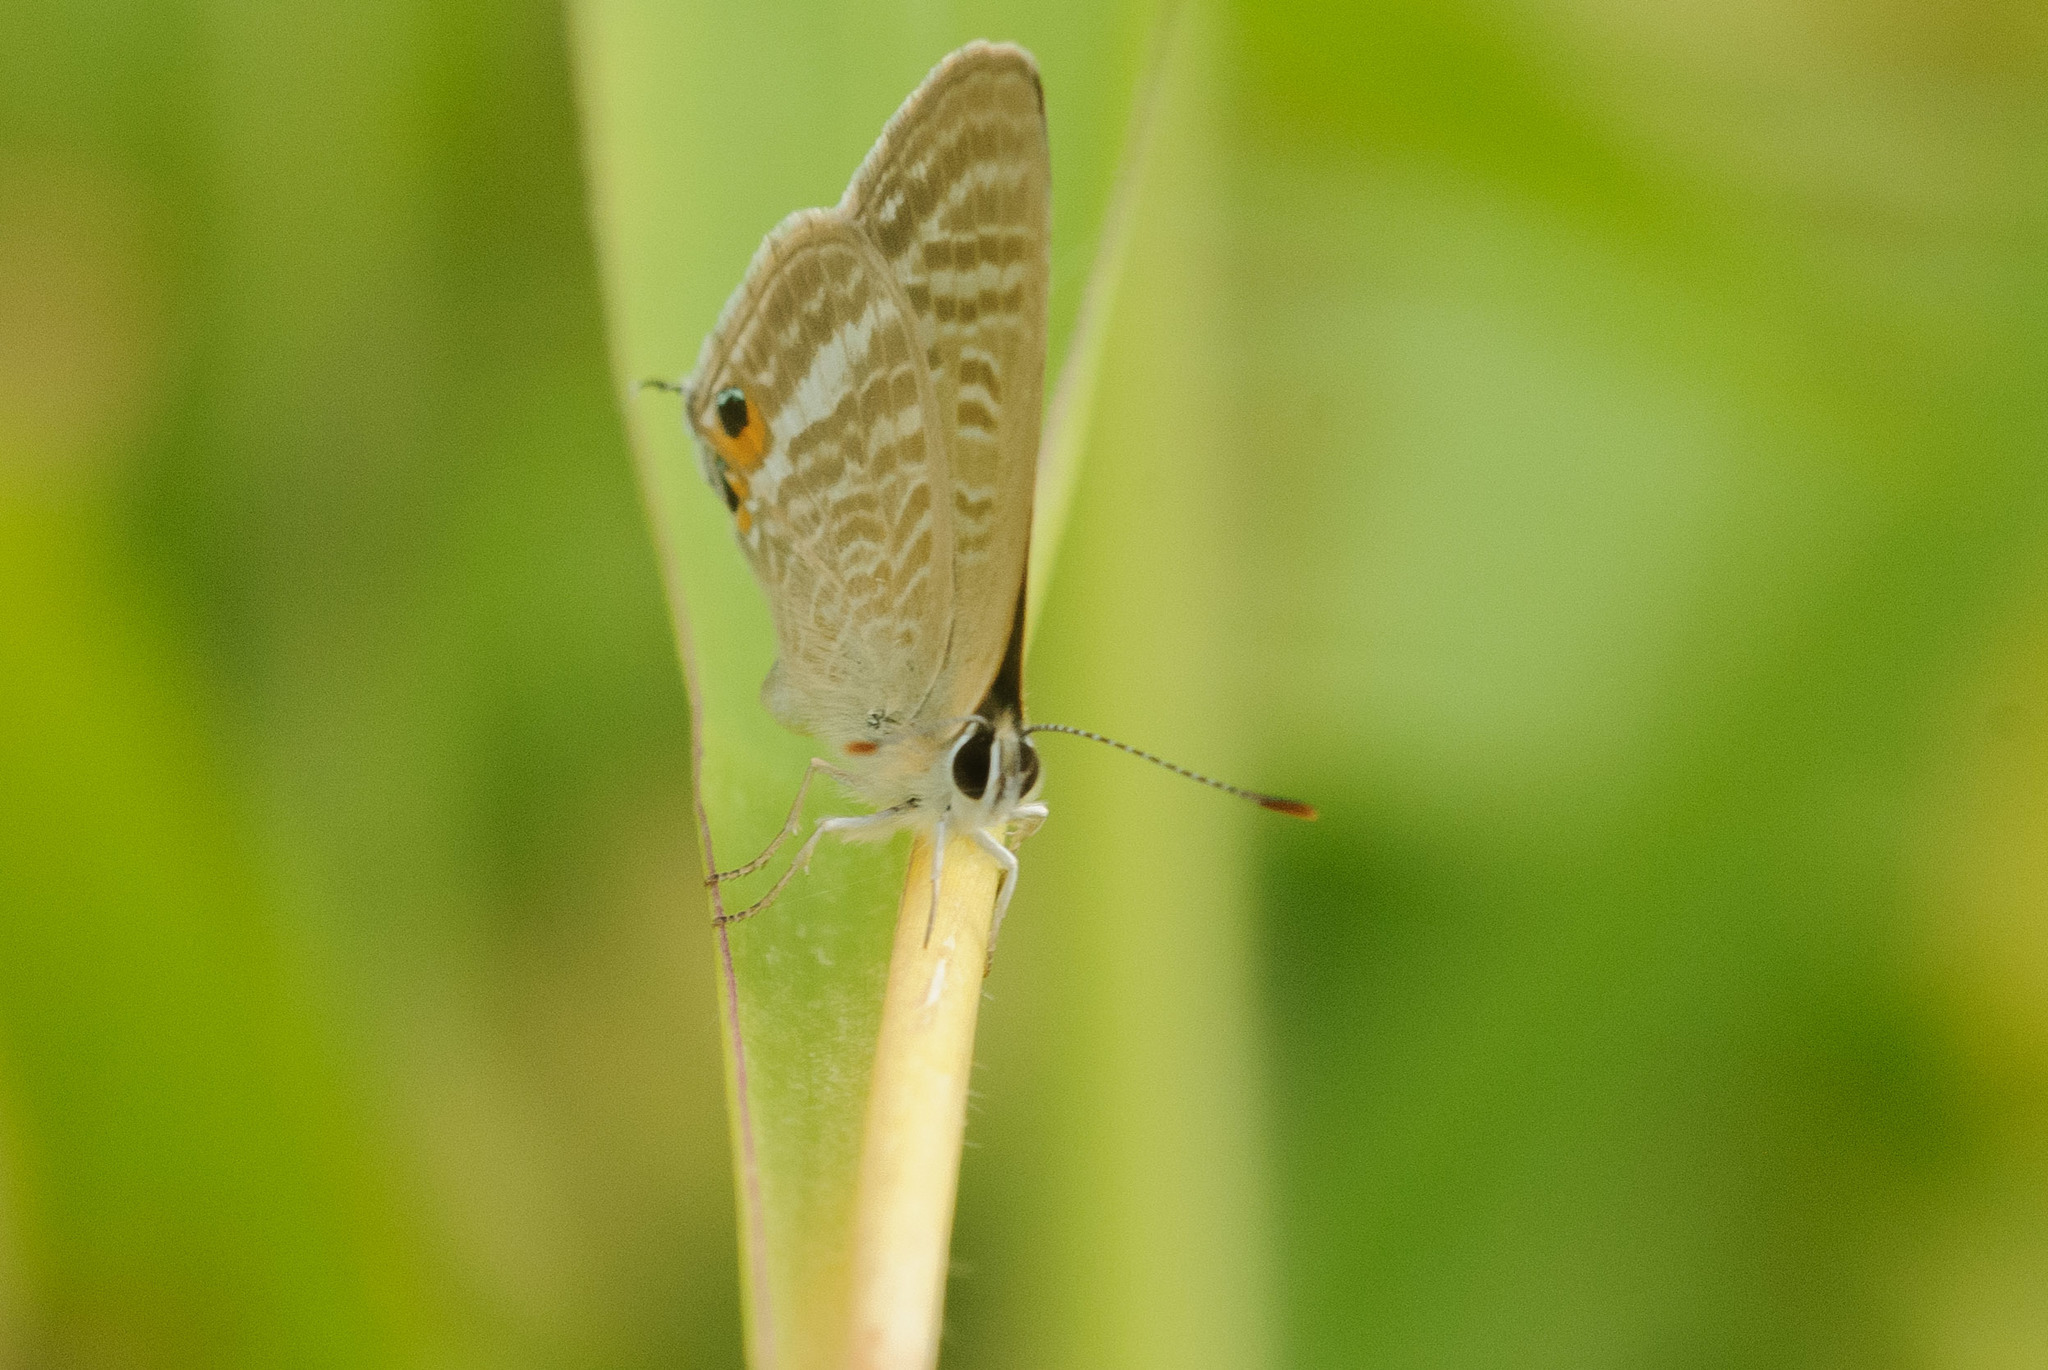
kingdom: Animalia
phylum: Arthropoda
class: Insecta
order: Lepidoptera
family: Lycaenidae
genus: Lampides
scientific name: Lampides boeticus
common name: Long-tailed blue
